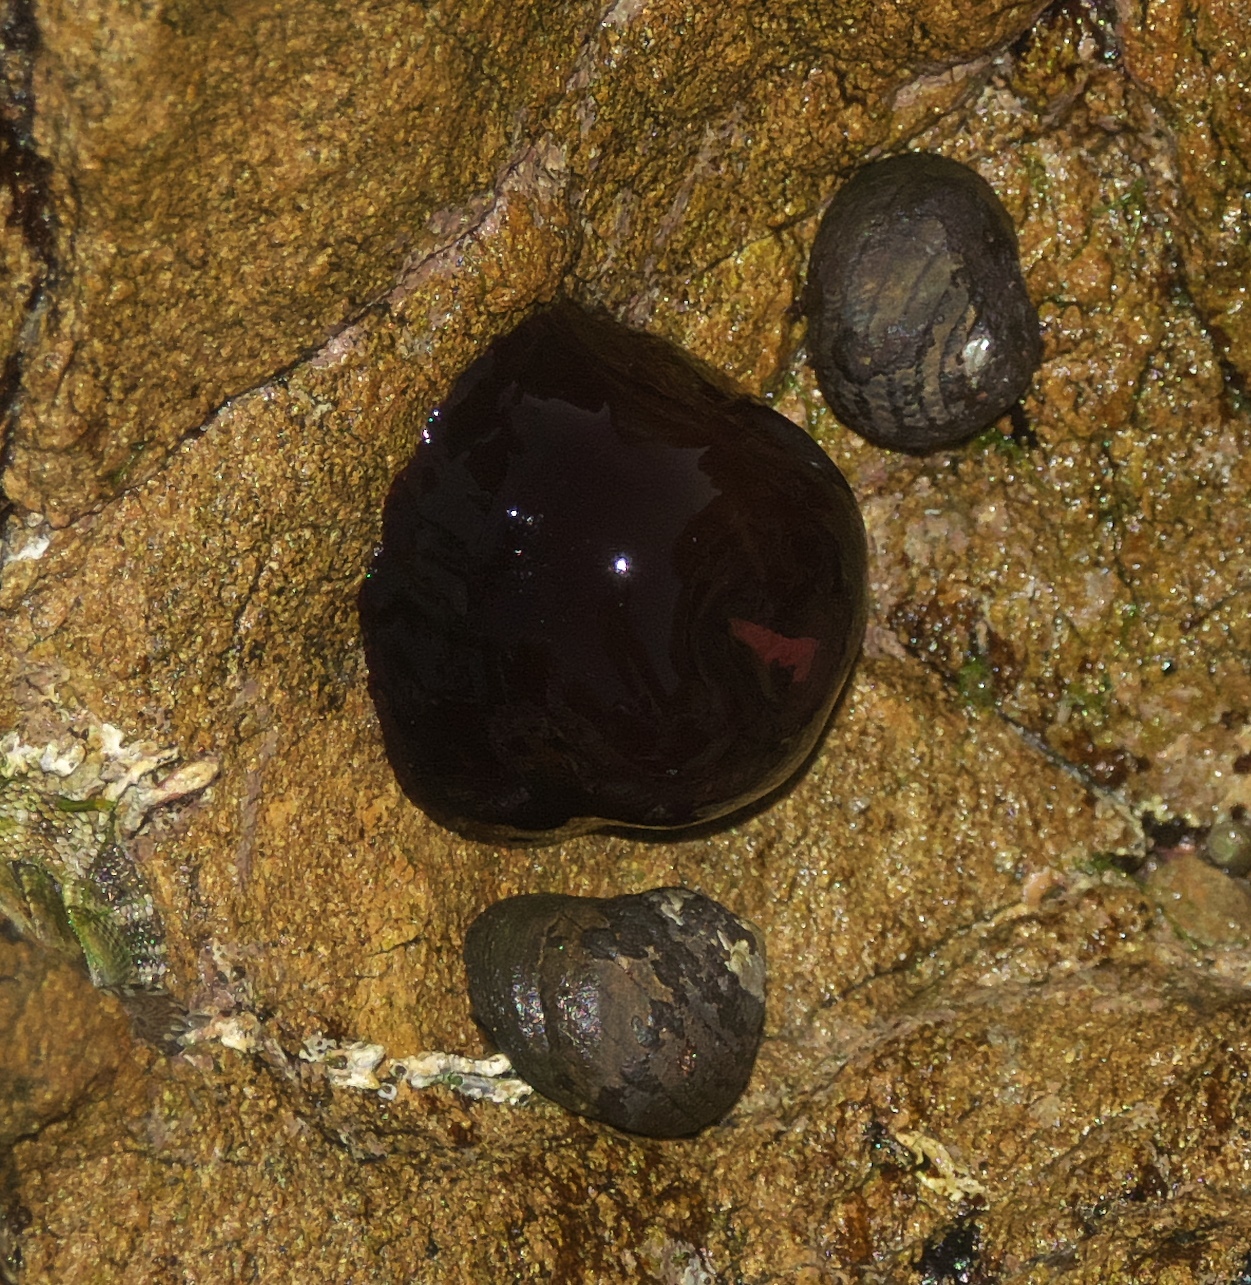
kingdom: Animalia
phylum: Cnidaria
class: Anthozoa
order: Actiniaria
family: Actiniidae
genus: Actinia
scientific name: Actinia tenebrosa
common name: Waratah anemone
